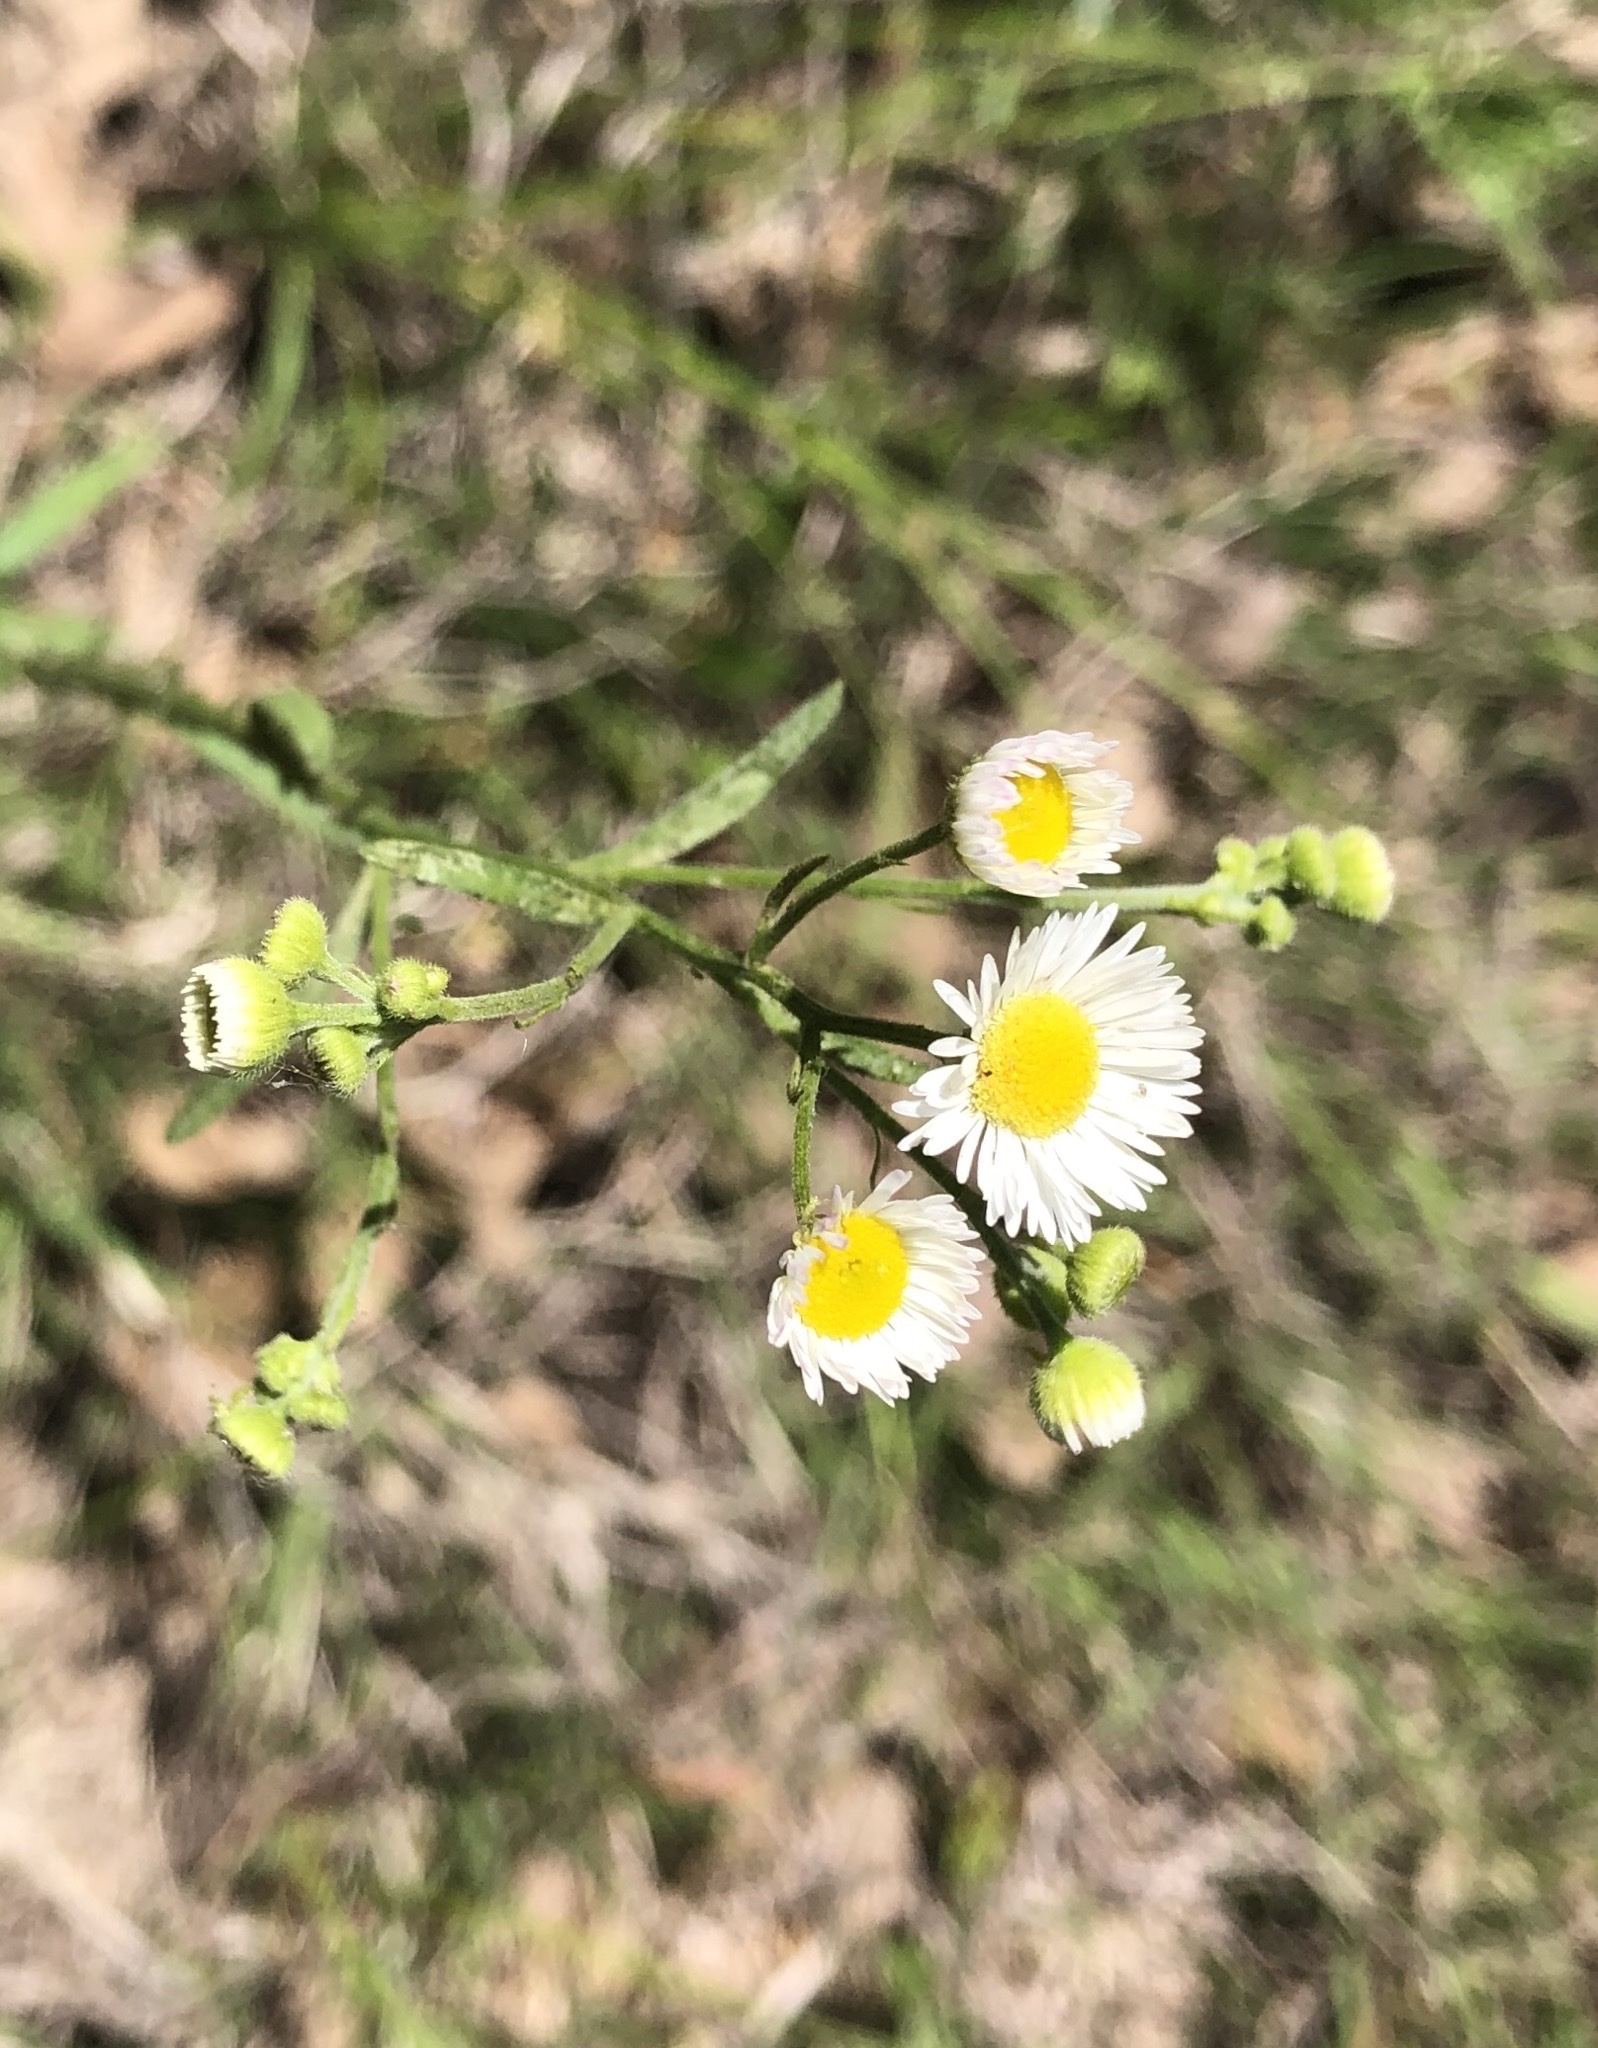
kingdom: Plantae
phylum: Tracheophyta
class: Magnoliopsida
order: Asterales
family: Asteraceae
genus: Erigeron
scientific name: Erigeron strigosus
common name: Common eastern fleabane
